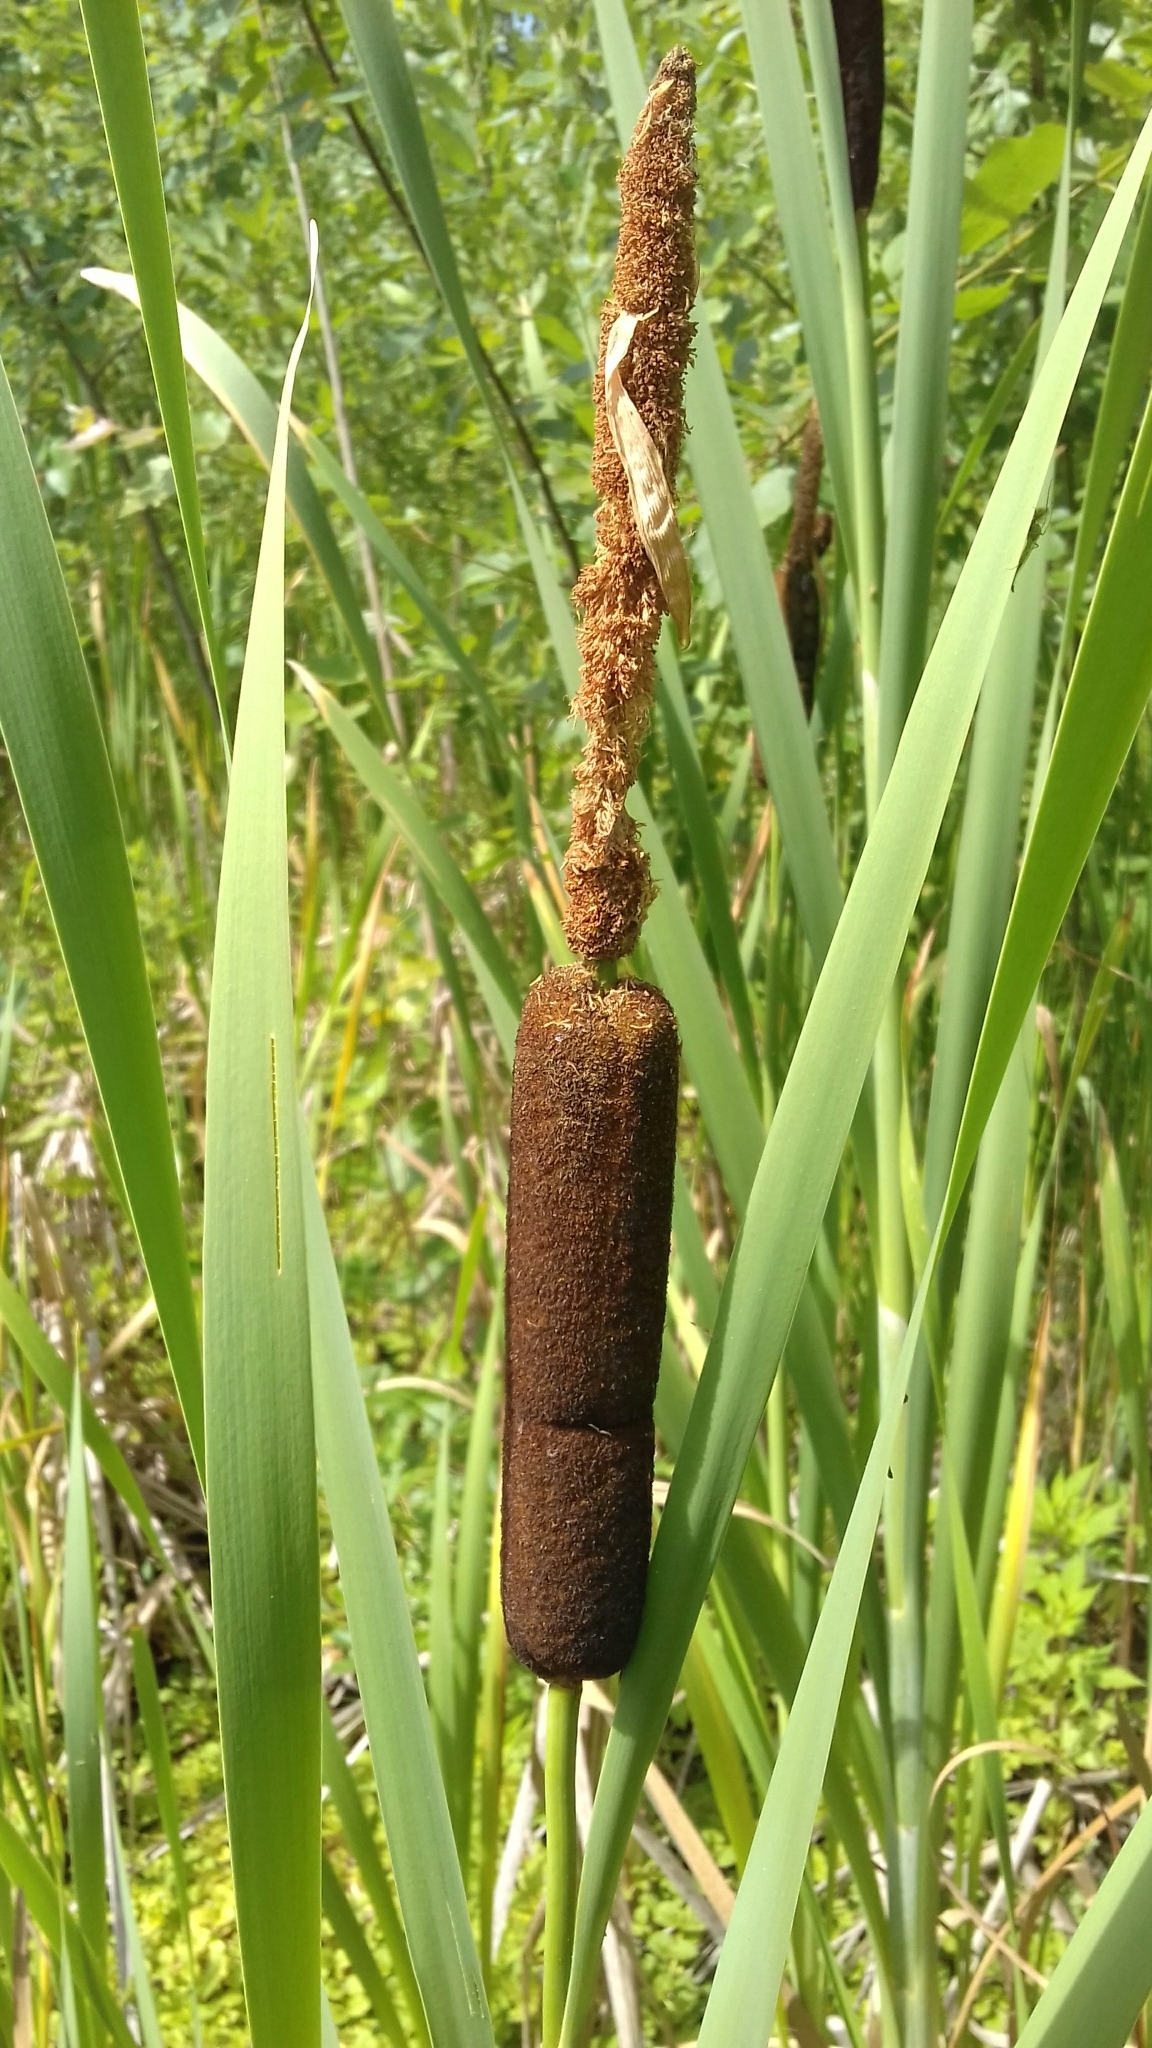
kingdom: Plantae
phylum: Tracheophyta
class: Liliopsida
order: Poales
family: Typhaceae
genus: Typha
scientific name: Typha latifolia
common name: Broadleaf cattail
